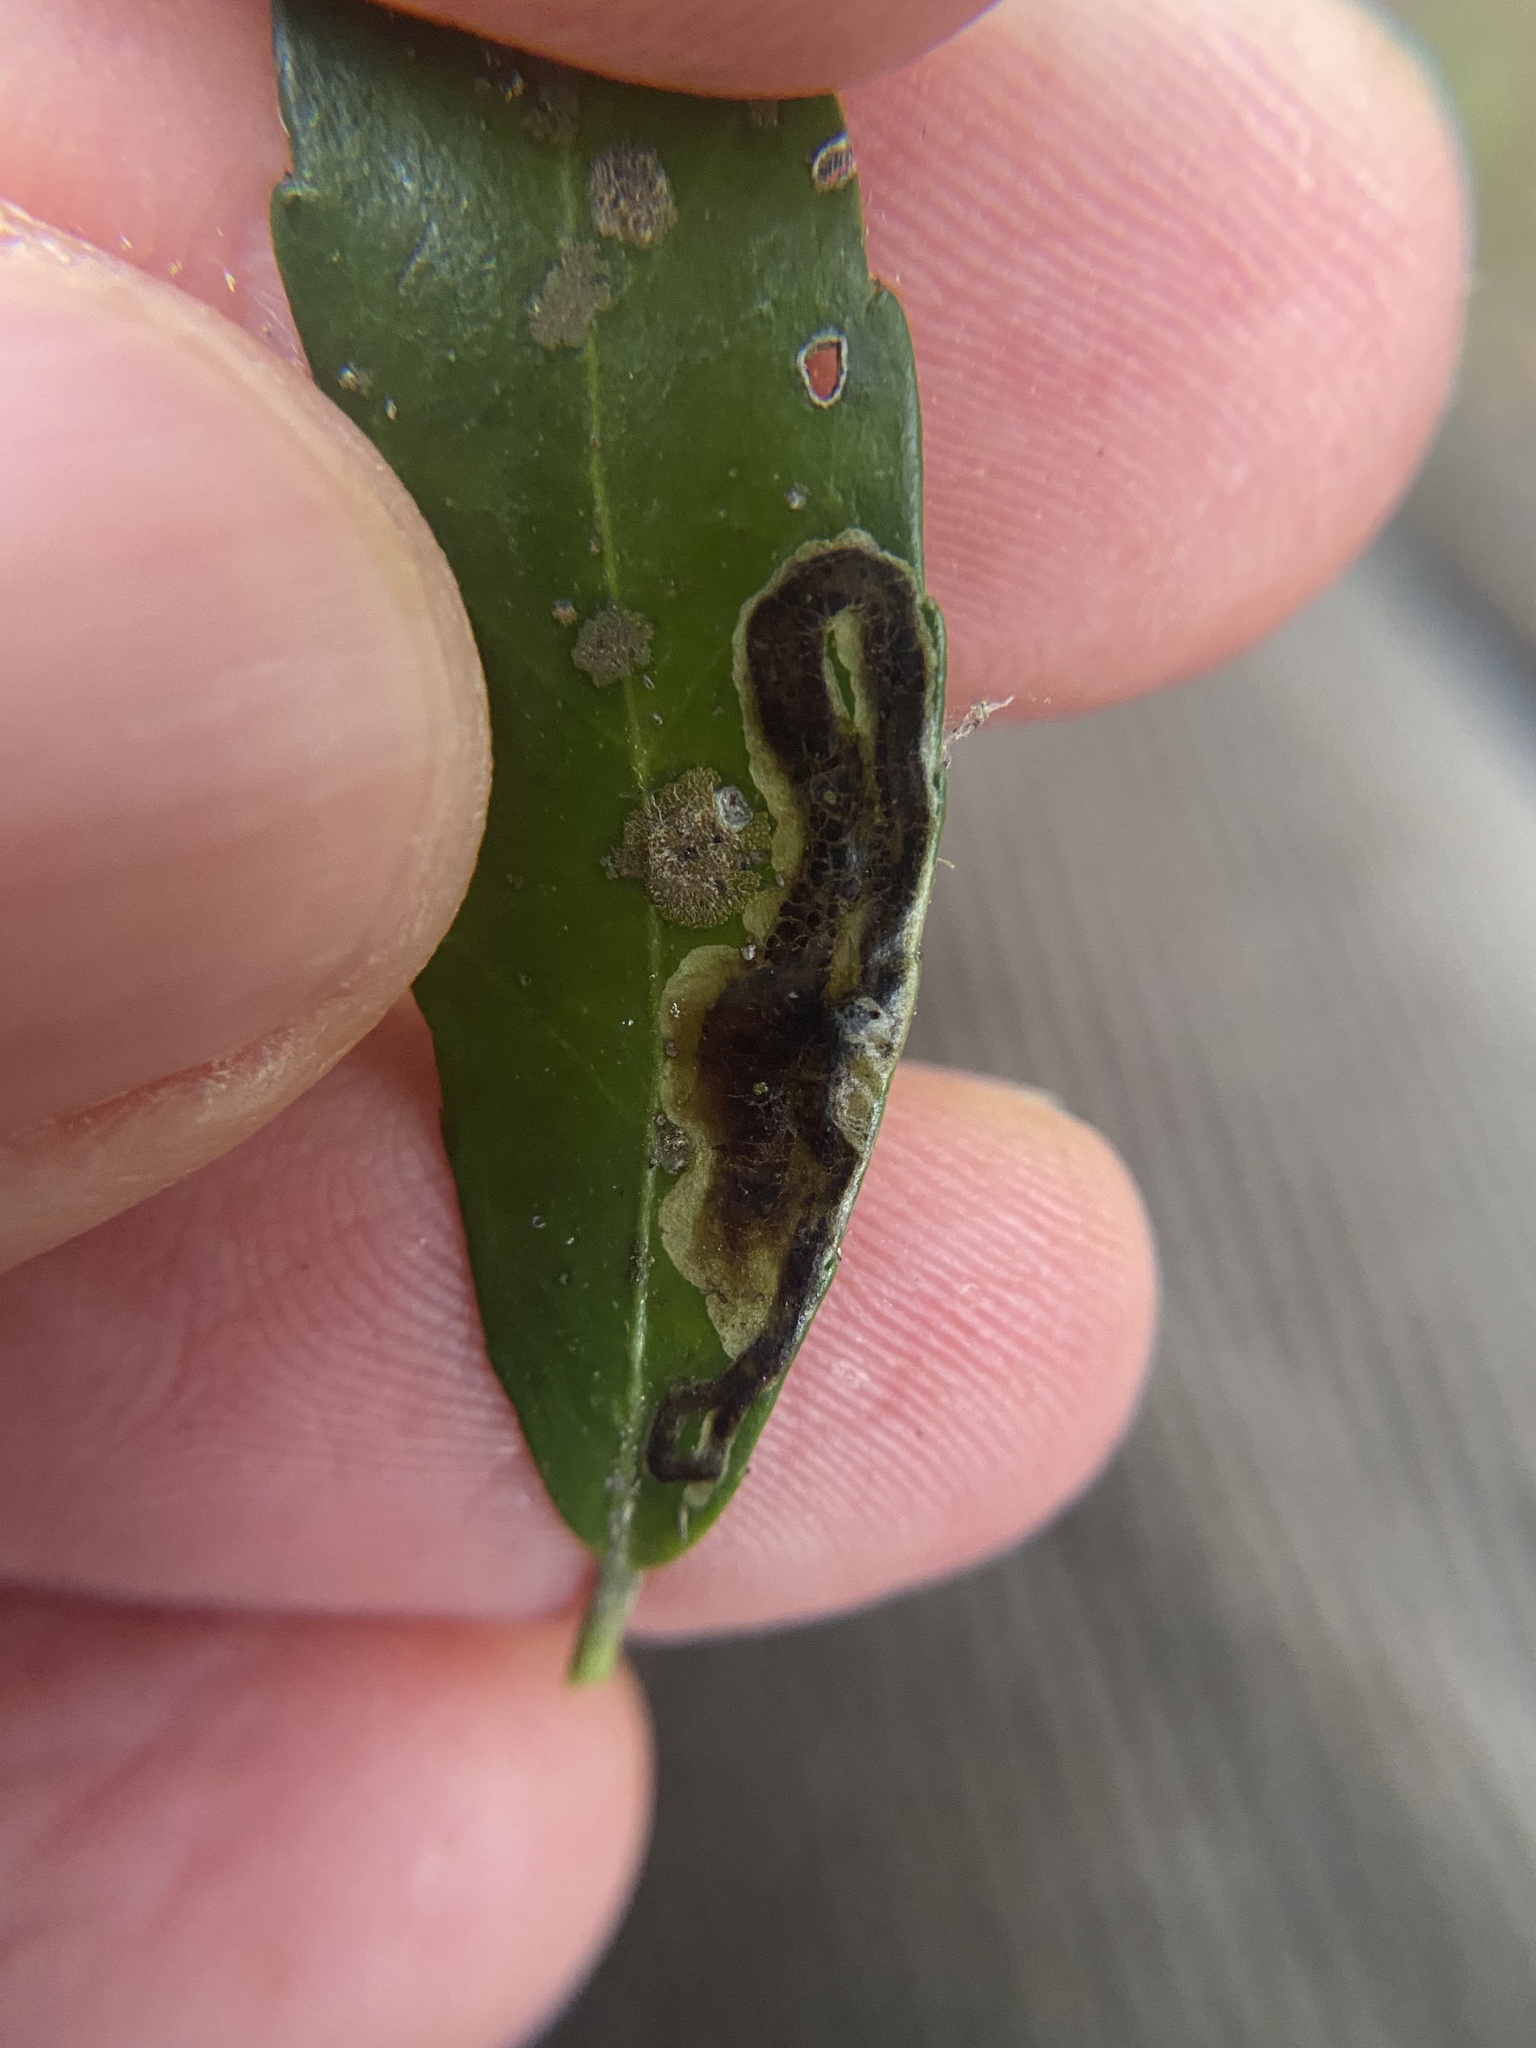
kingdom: Animalia
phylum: Arthropoda
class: Insecta
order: Diptera
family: Agromyzidae
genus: Phytomyza
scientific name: Phytomyza vomitoriae
